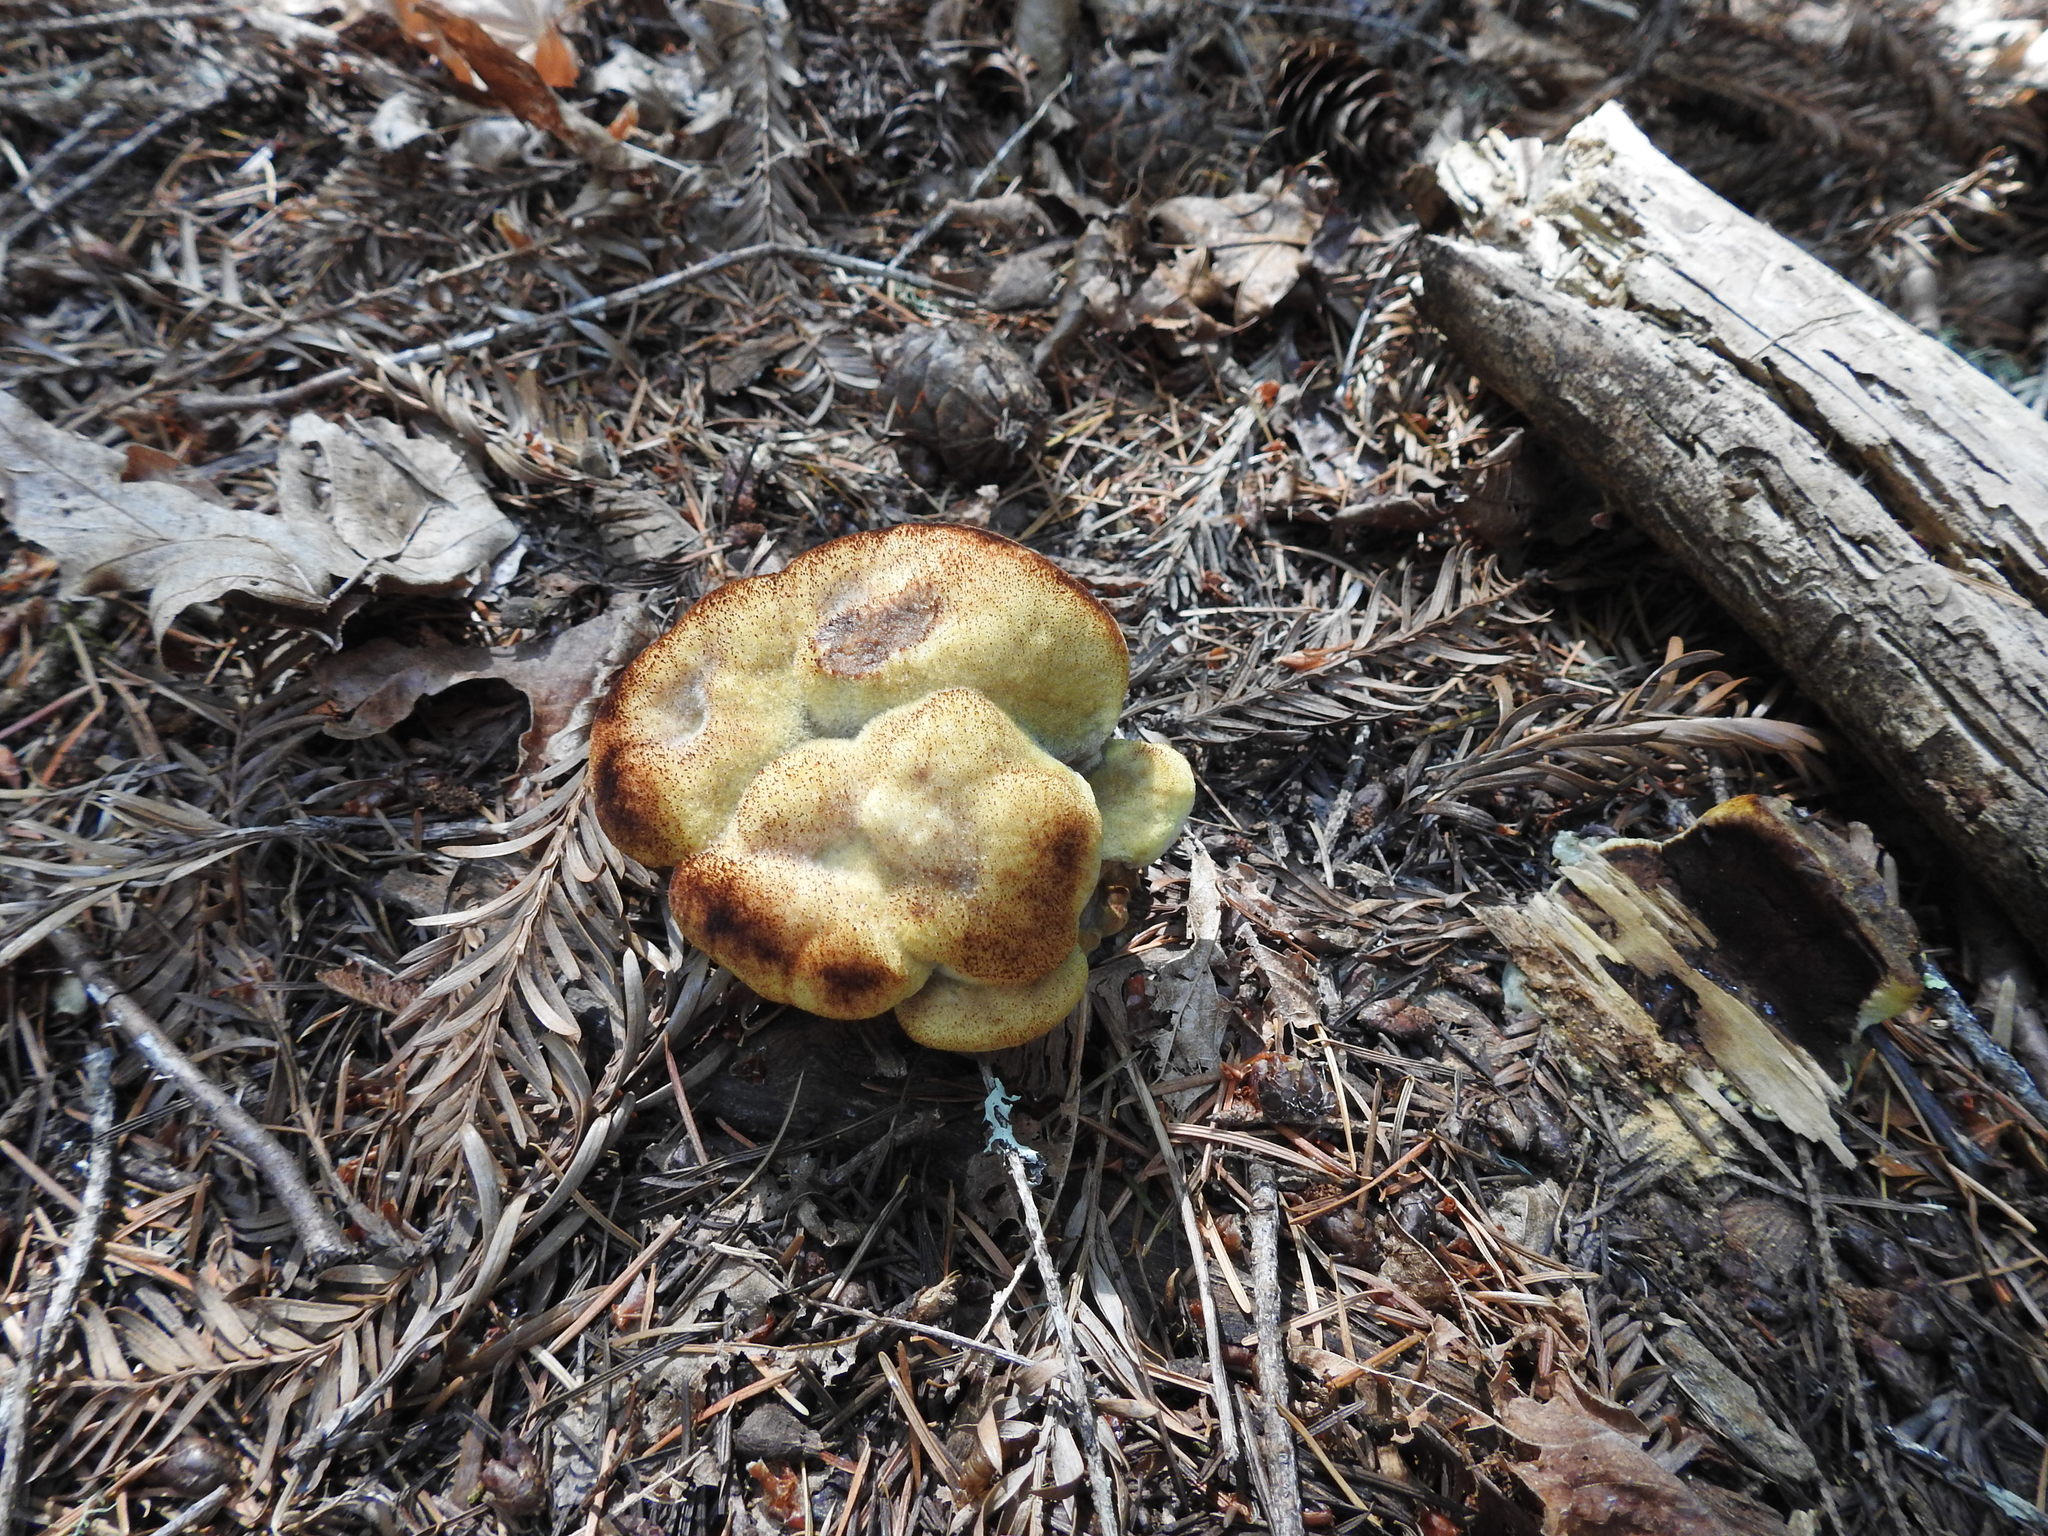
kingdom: Fungi
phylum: Basidiomycota
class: Agaricomycetes
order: Polyporales
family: Laetiporaceae
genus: Phaeolus
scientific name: Phaeolus schweinitzii
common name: Dyer's mazegill
